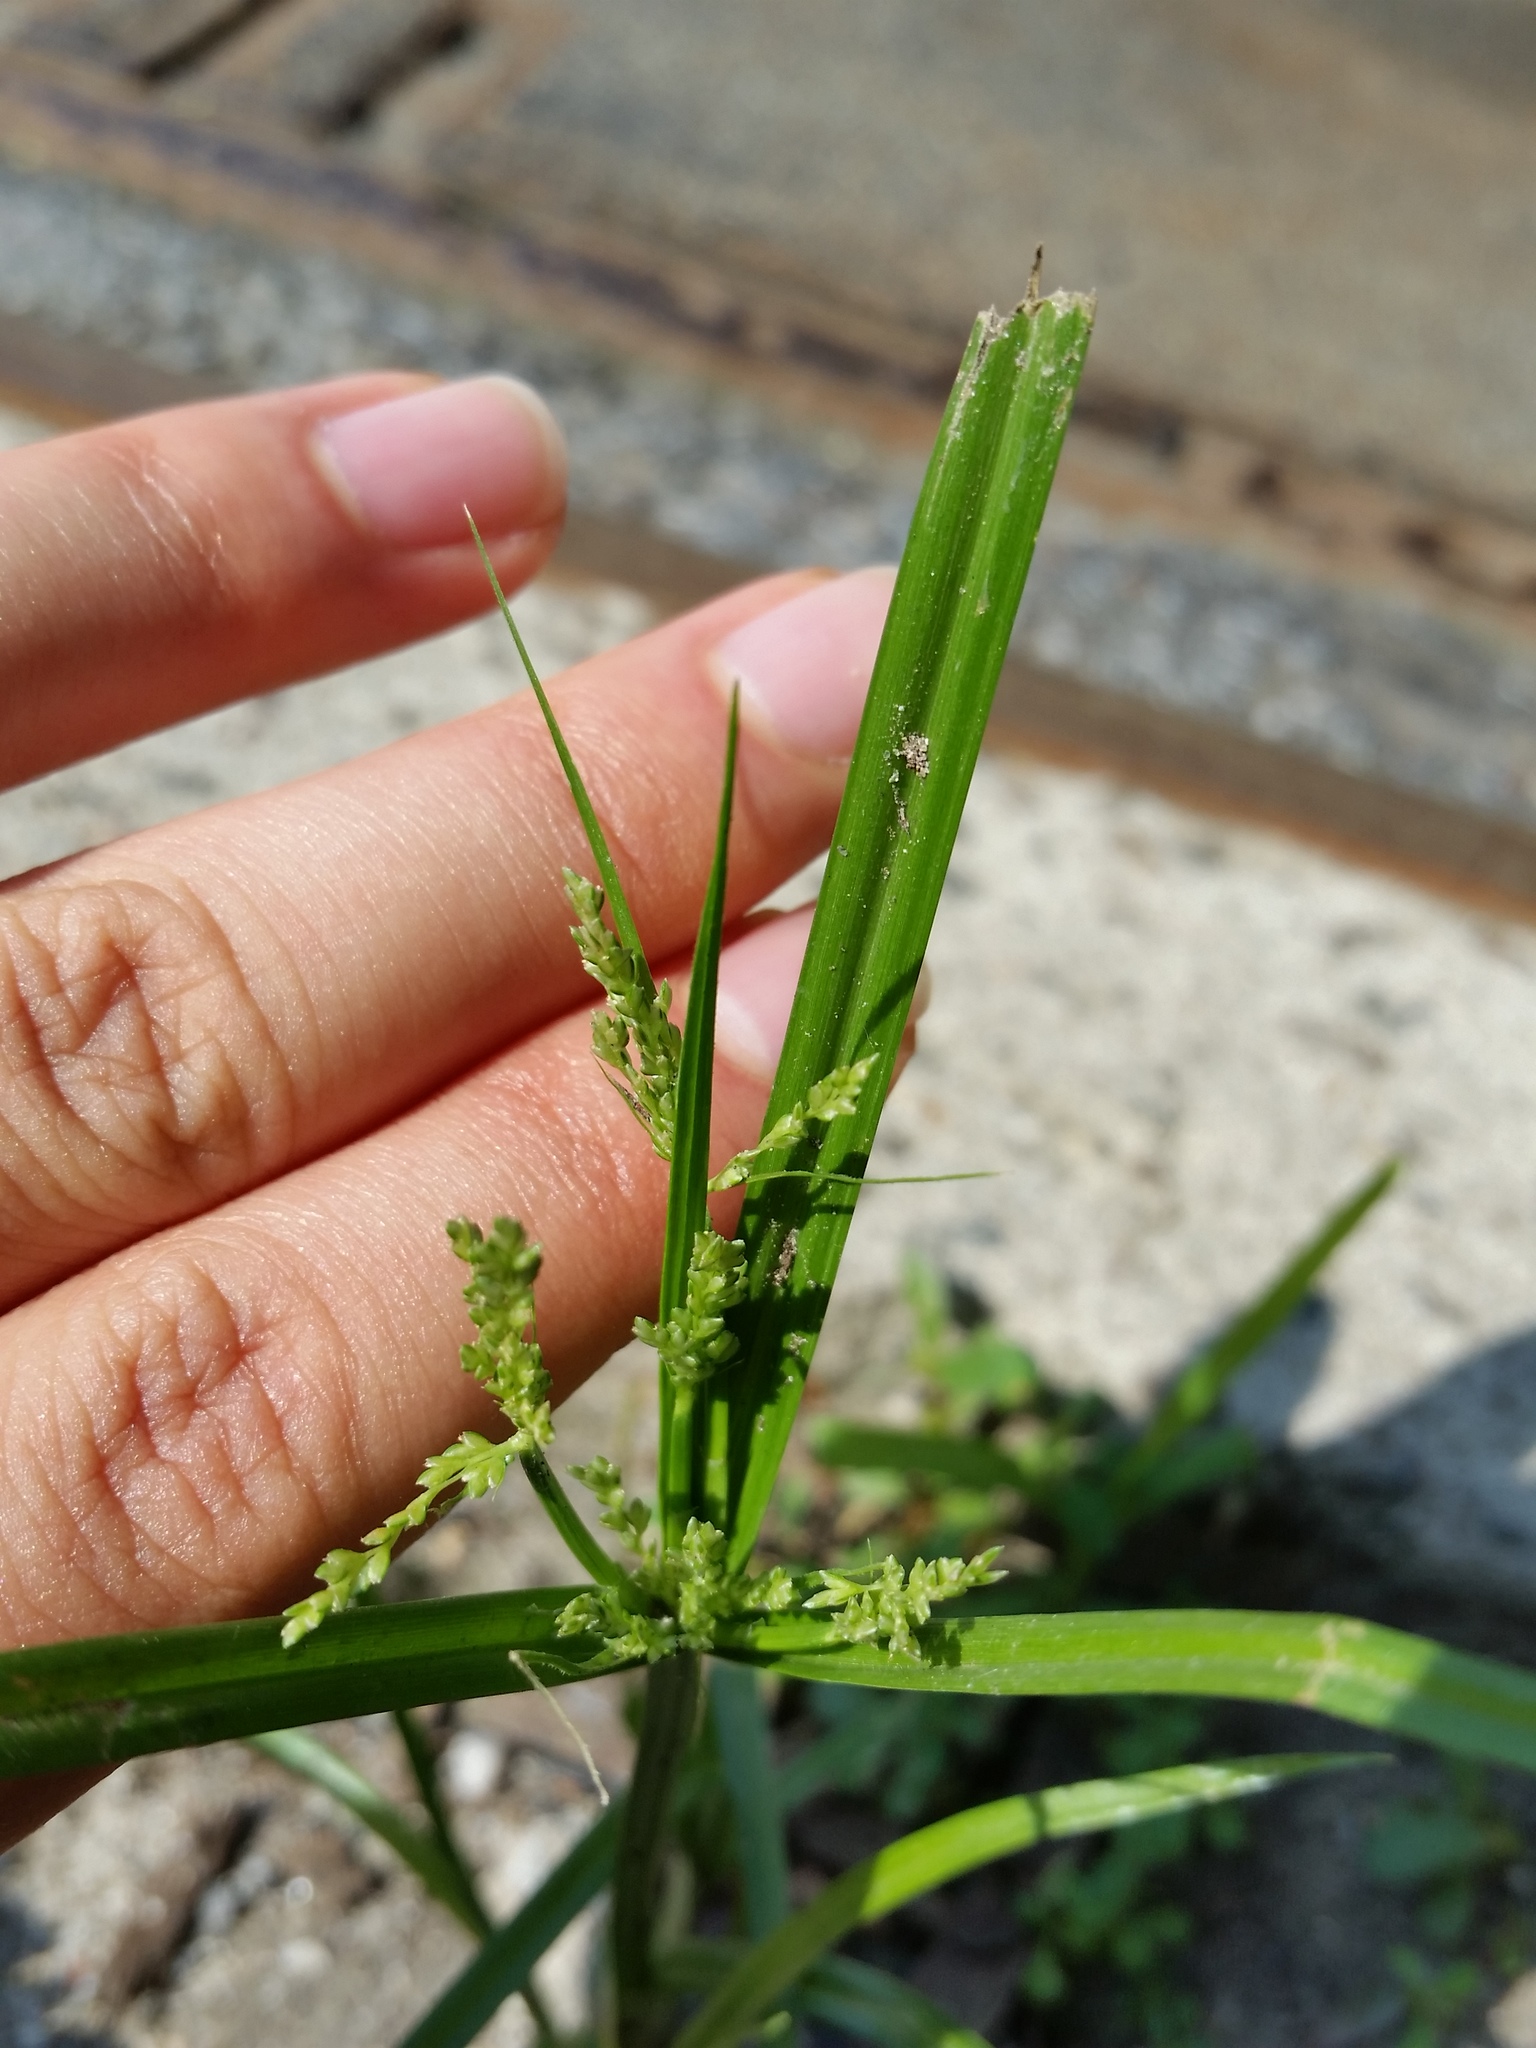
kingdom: Plantae
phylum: Tracheophyta
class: Liliopsida
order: Poales
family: Cyperaceae
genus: Cyperus
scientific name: Cyperus iria
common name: Ricefield flatsedge
